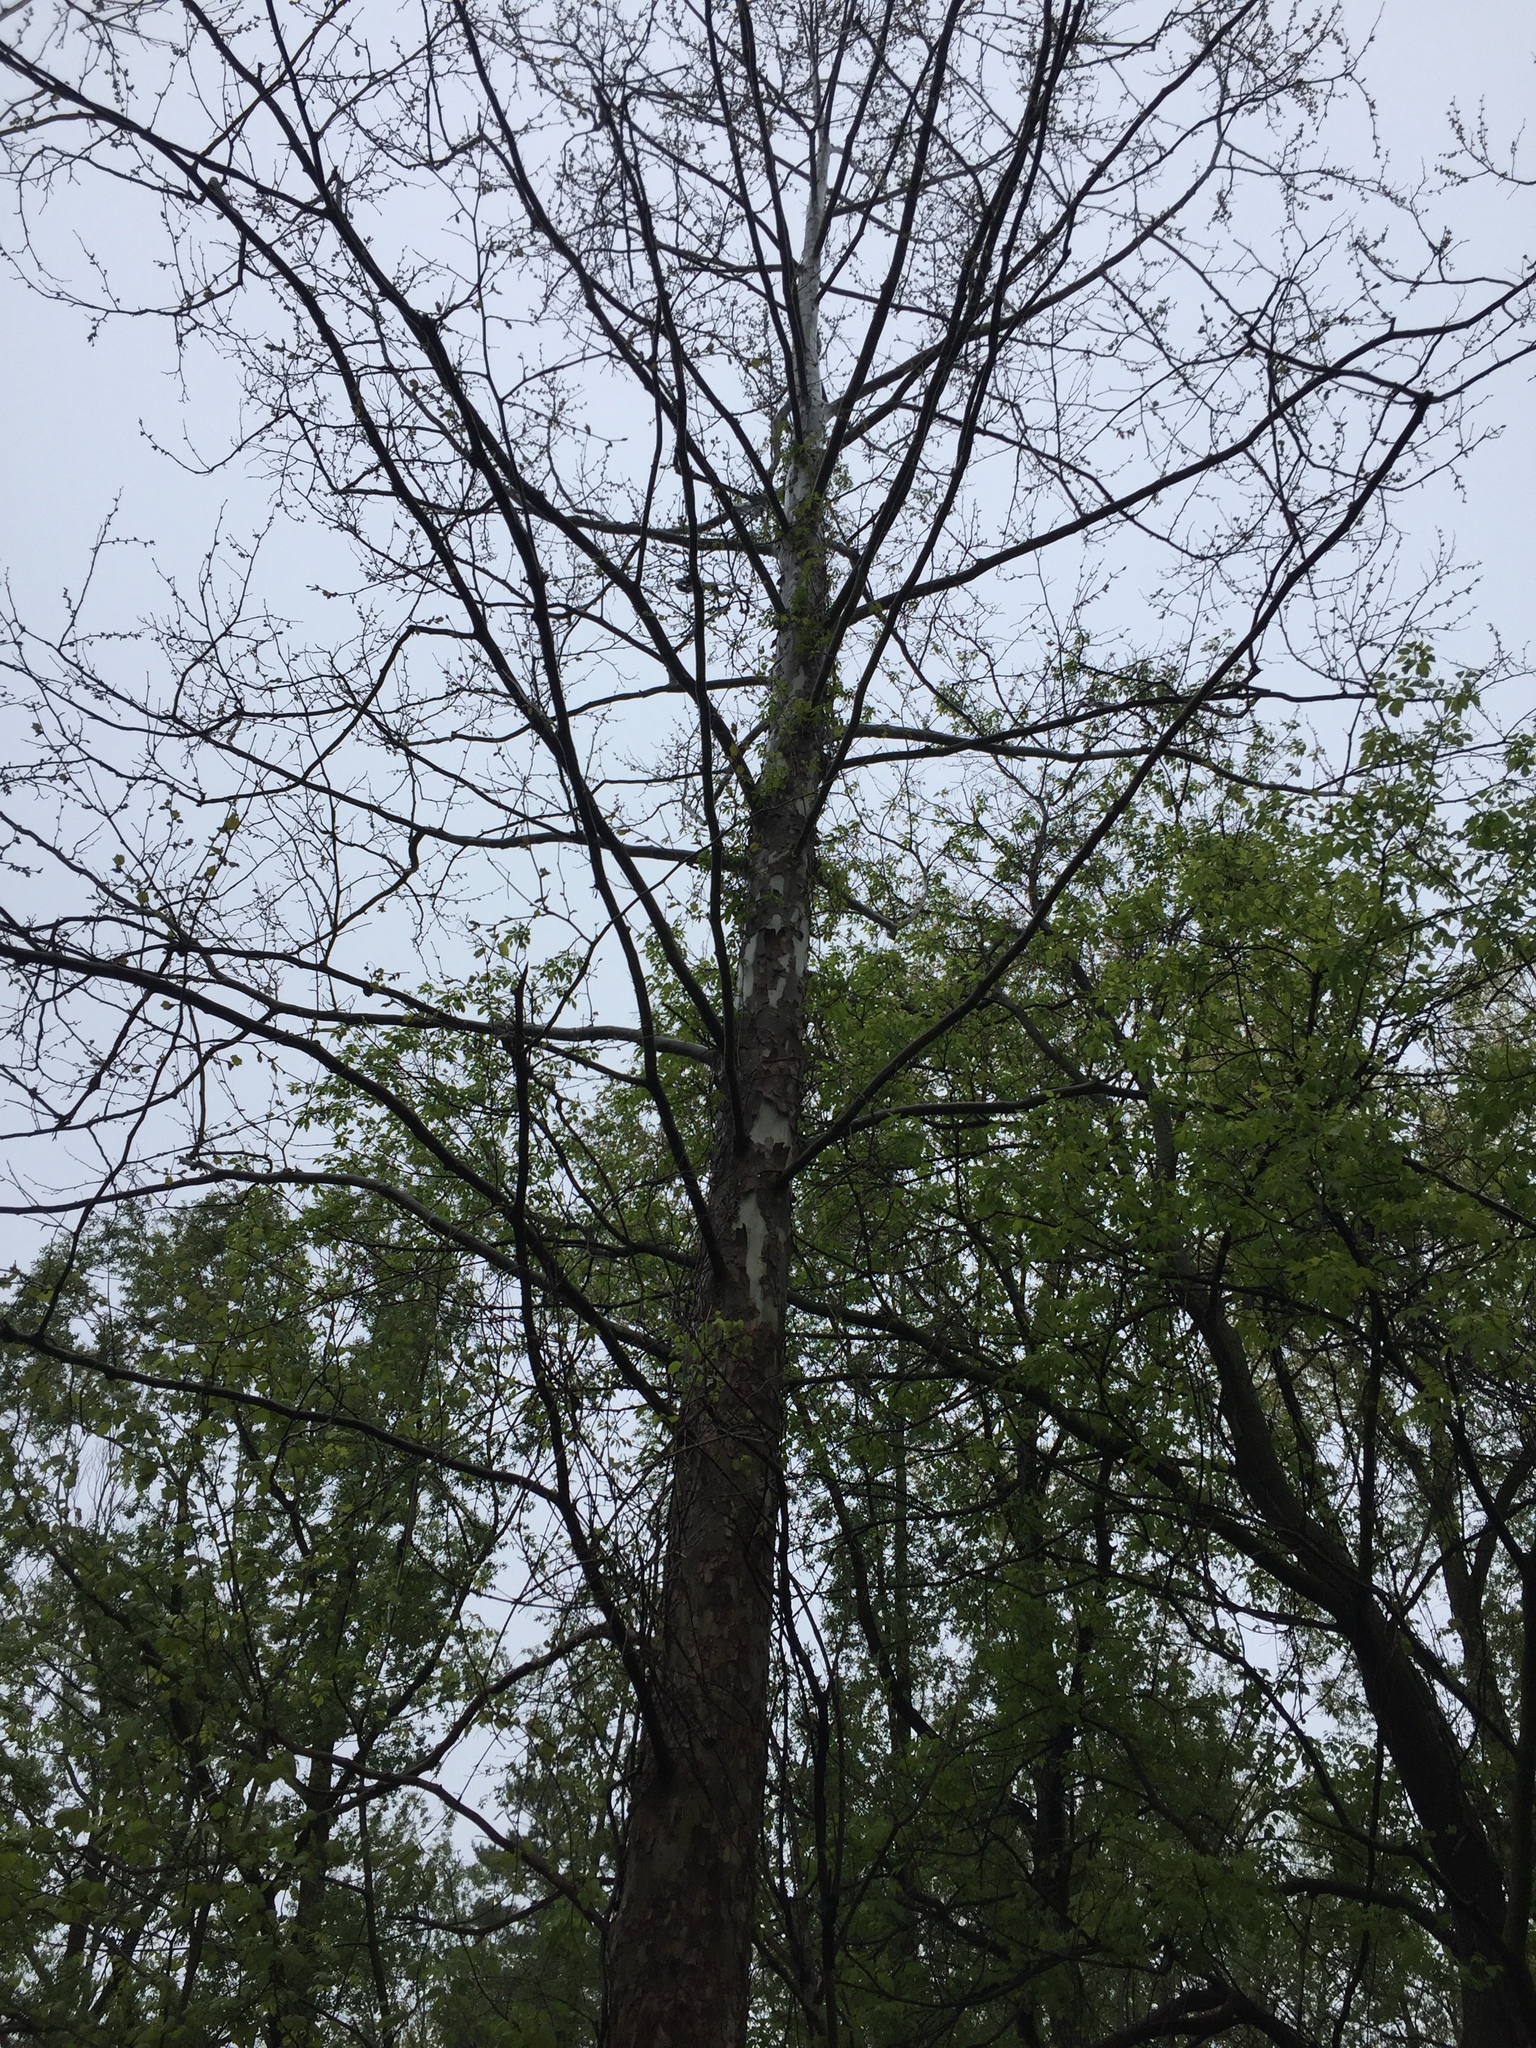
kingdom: Plantae
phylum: Tracheophyta
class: Magnoliopsida
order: Proteales
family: Platanaceae
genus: Platanus
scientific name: Platanus occidentalis
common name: American sycamore
